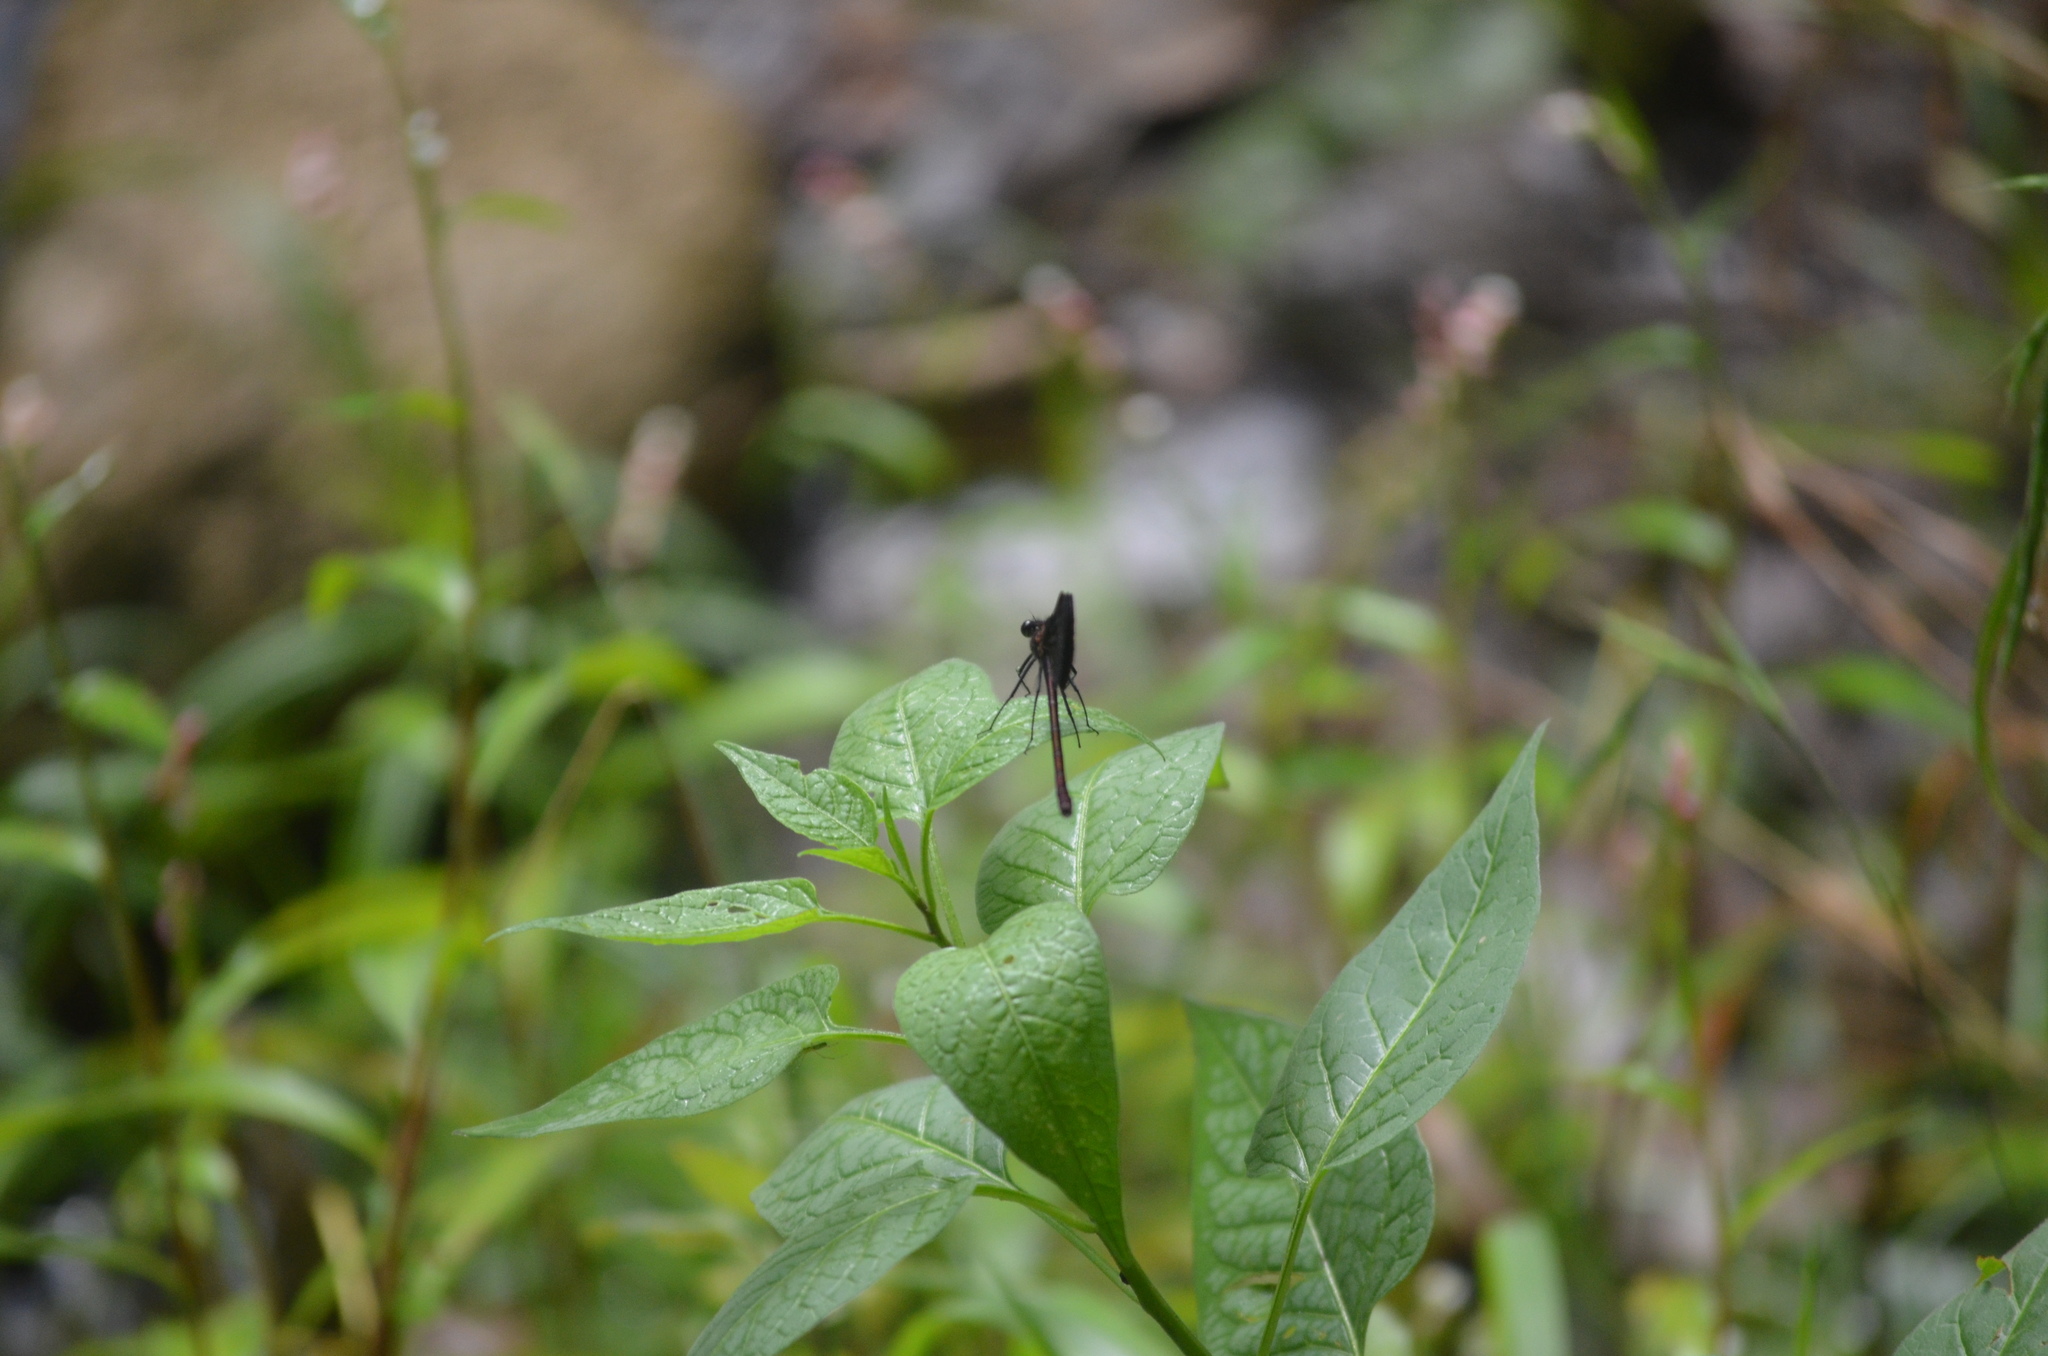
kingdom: Animalia
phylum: Arthropoda
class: Insecta
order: Odonata
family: Calopterygidae
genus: Calopteryx
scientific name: Calopteryx haemorrhoidalis
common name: Copper demoiselle
